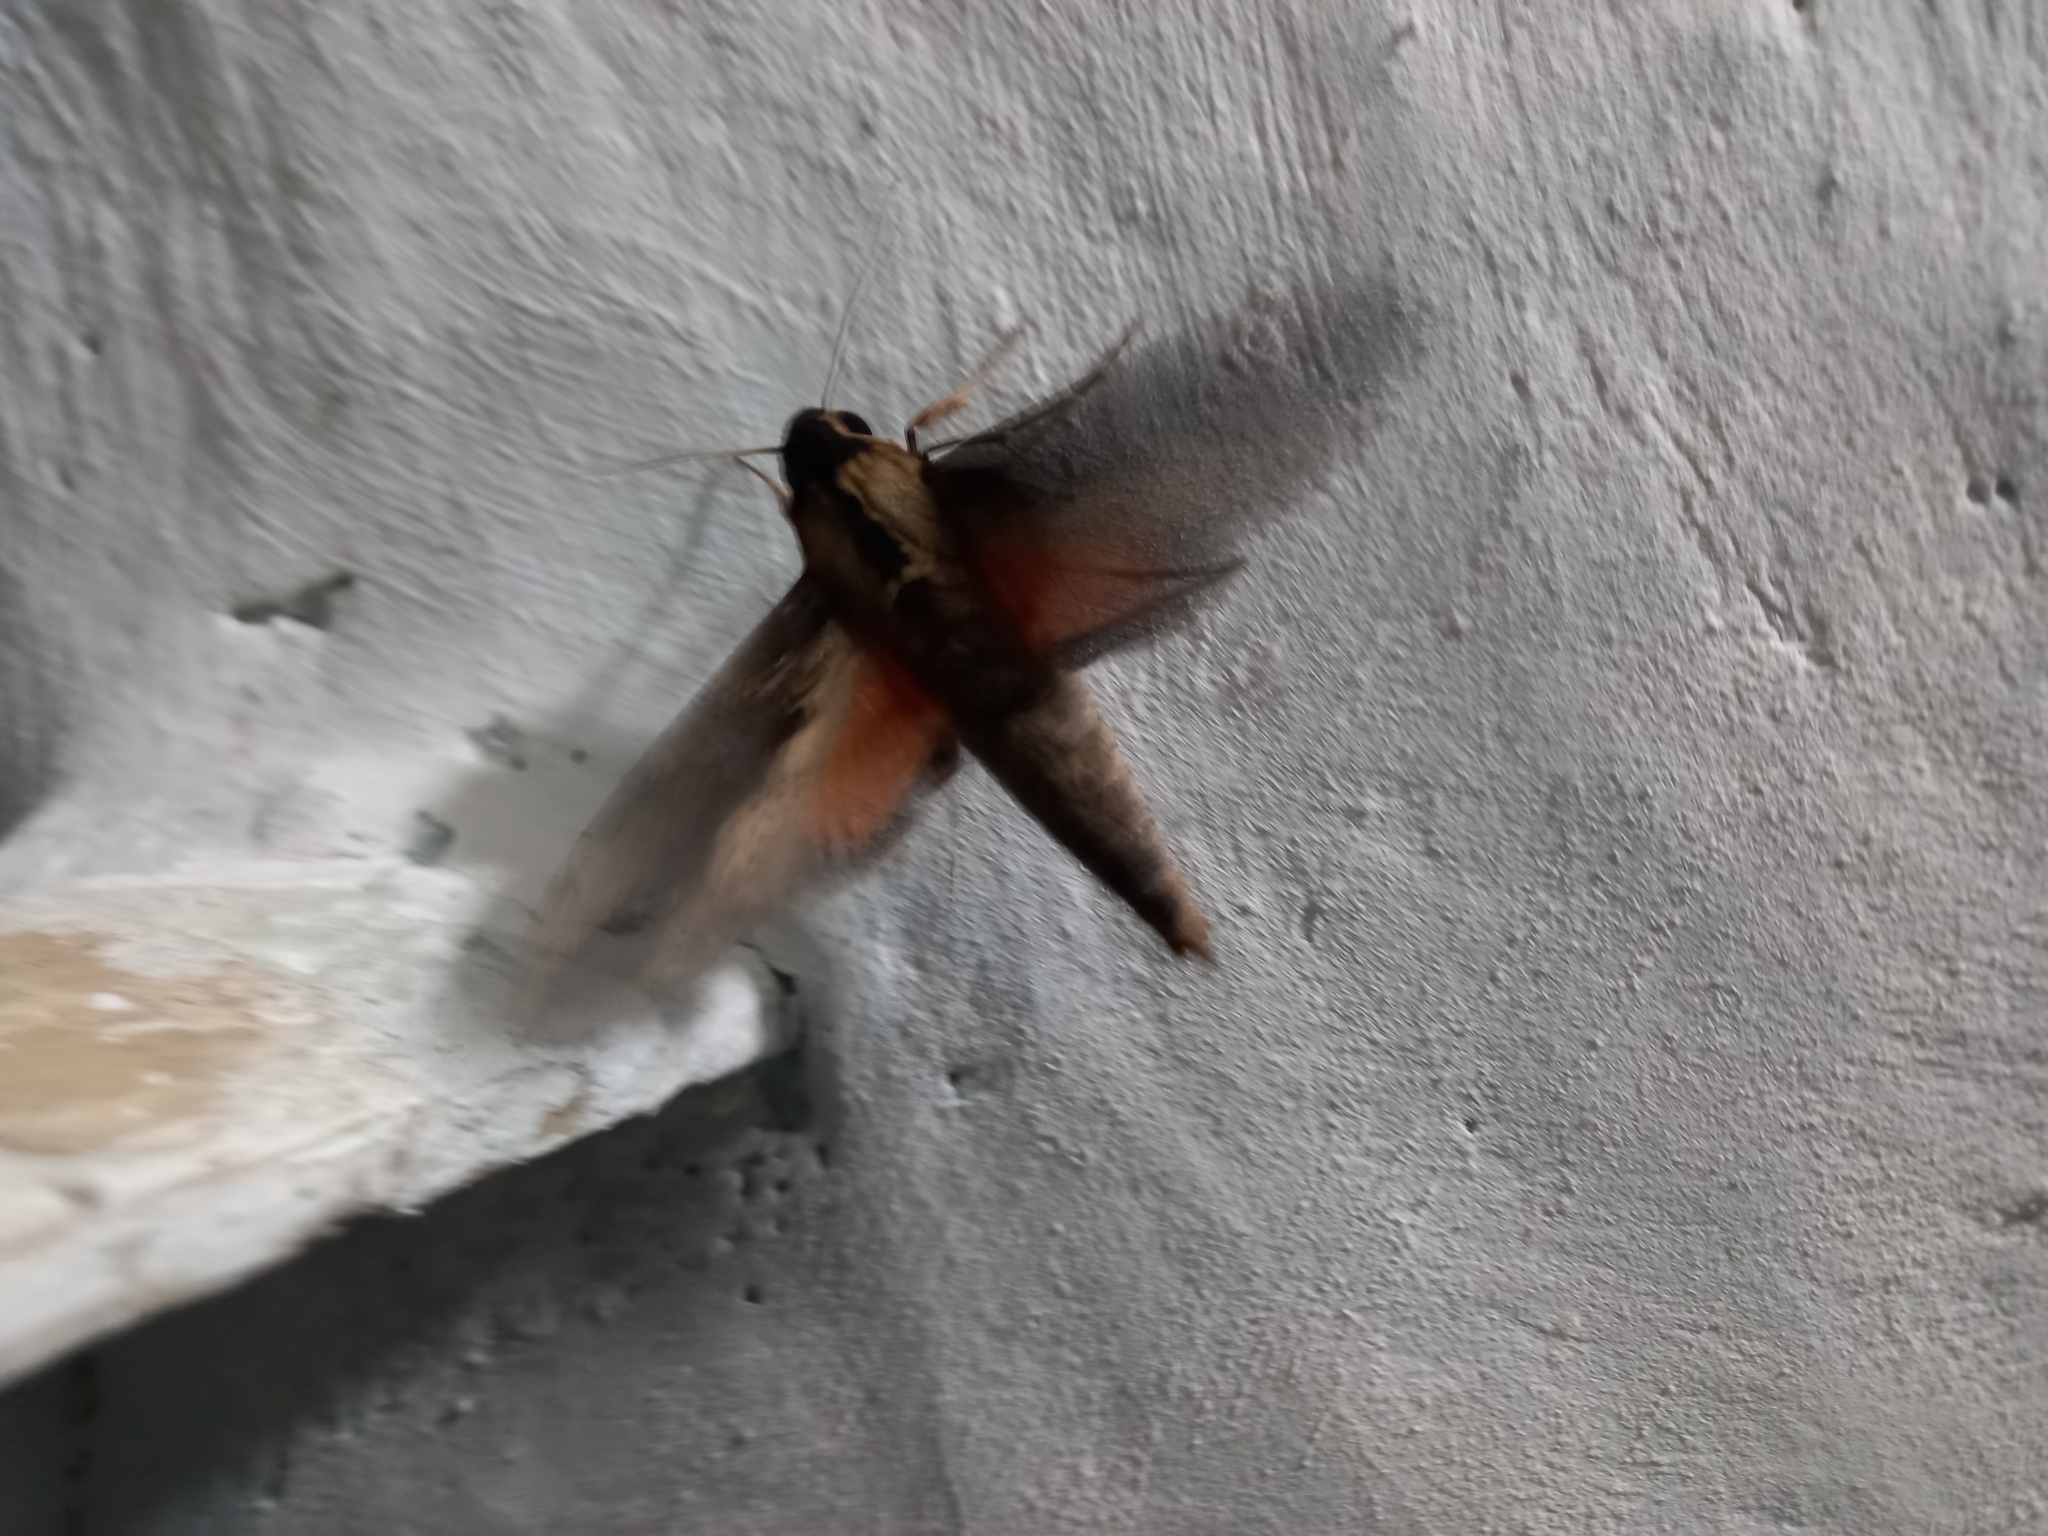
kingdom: Animalia
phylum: Arthropoda
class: Insecta
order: Lepidoptera
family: Sphingidae
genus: Erinnyis
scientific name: Erinnyis crameri
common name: Cramer's sphinx
